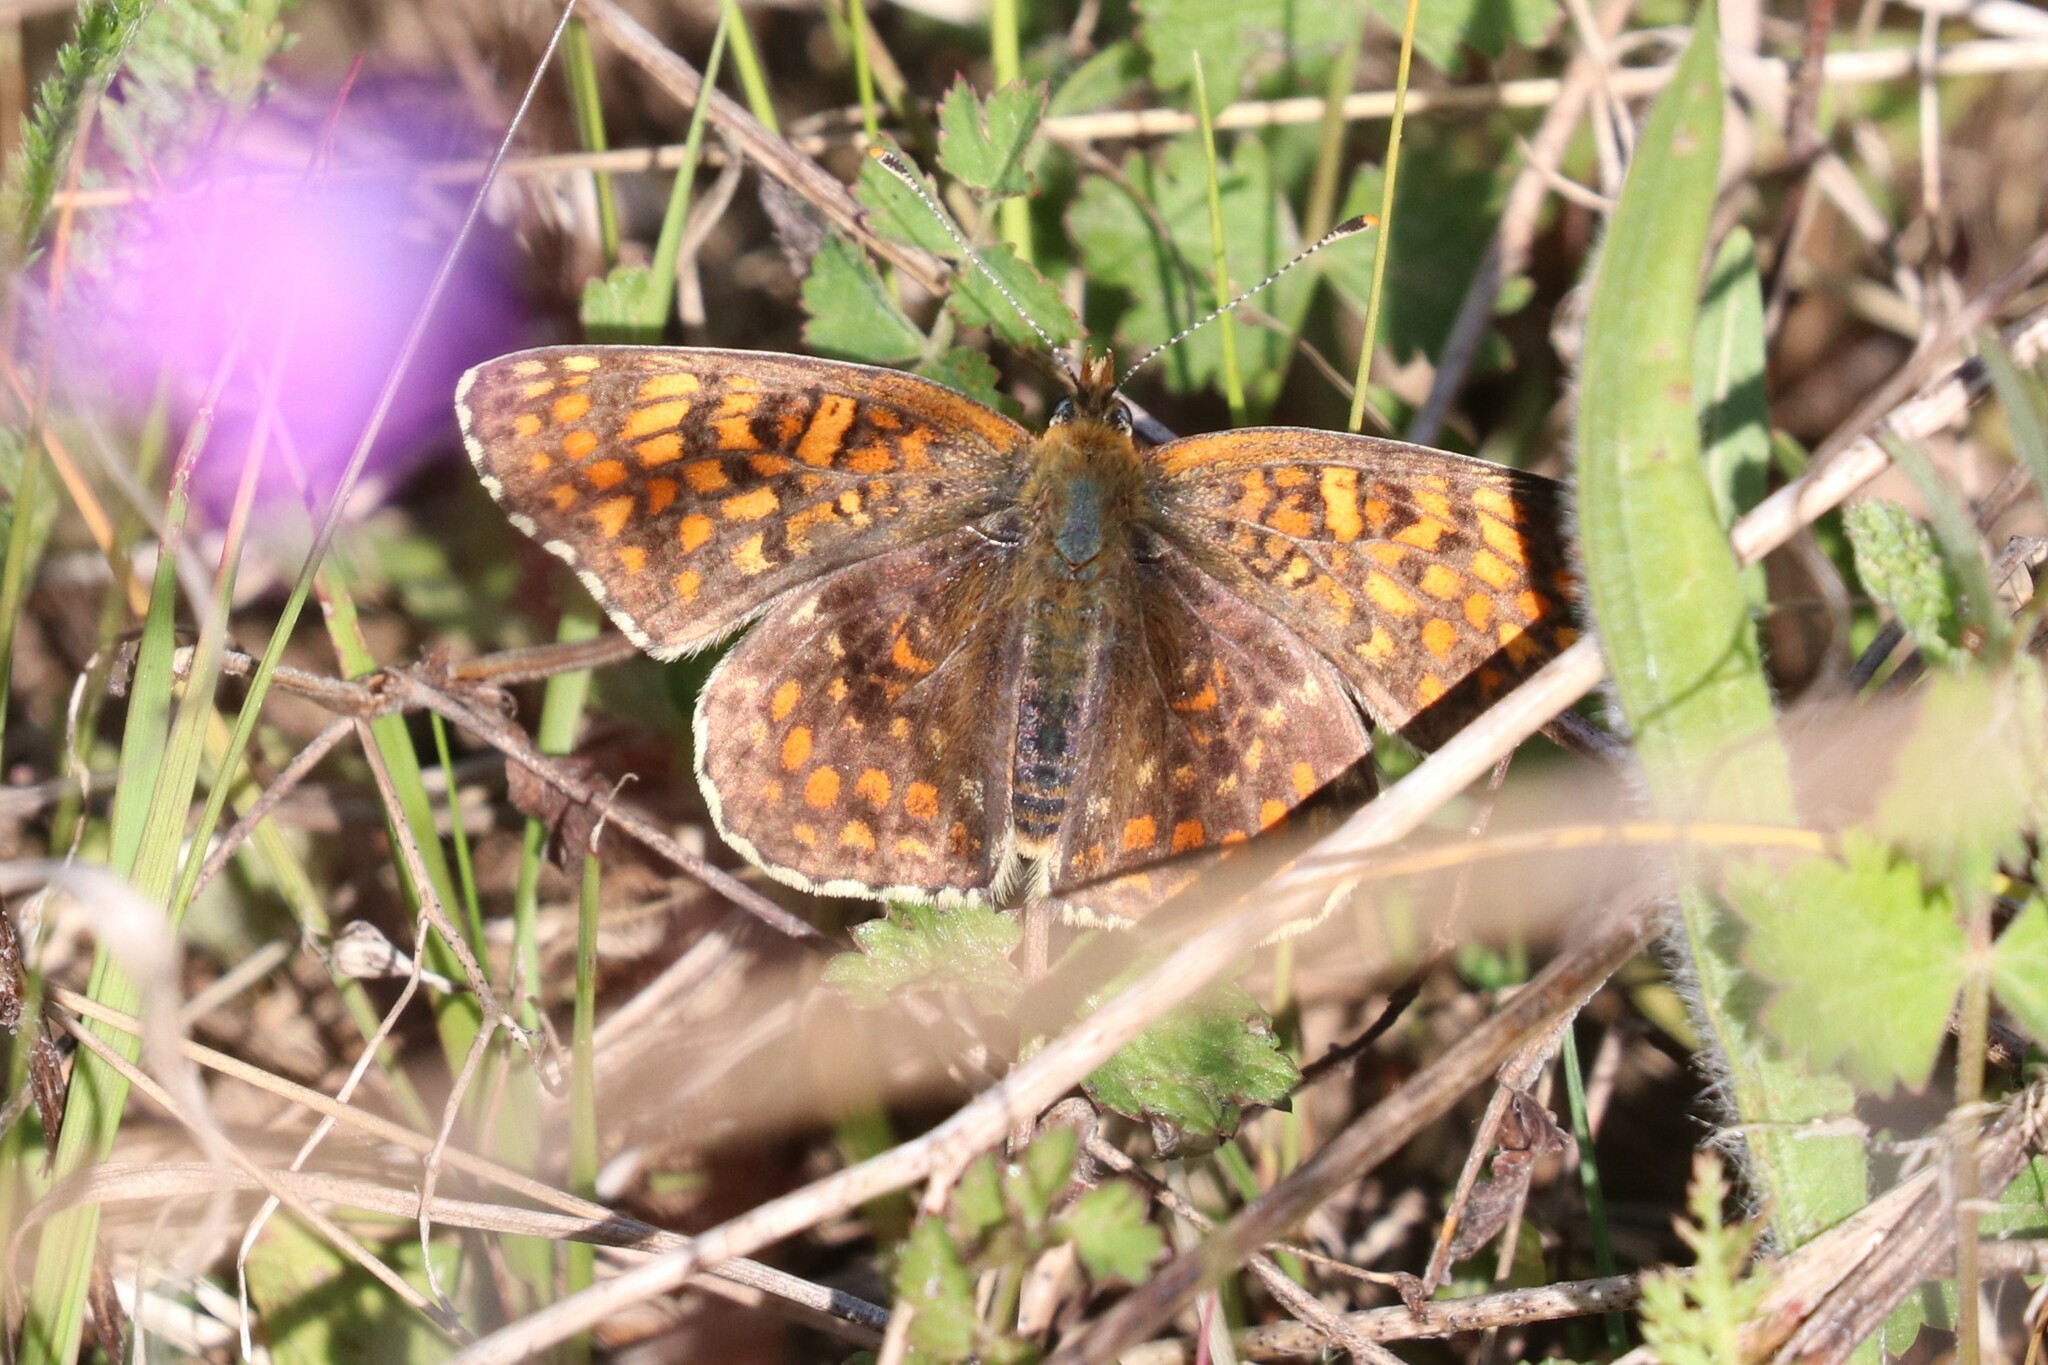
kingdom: Animalia
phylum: Arthropoda
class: Insecta
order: Lepidoptera
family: Nymphalidae
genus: Melitaea
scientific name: Melitaea phoebe
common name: Knapweed fritillary
